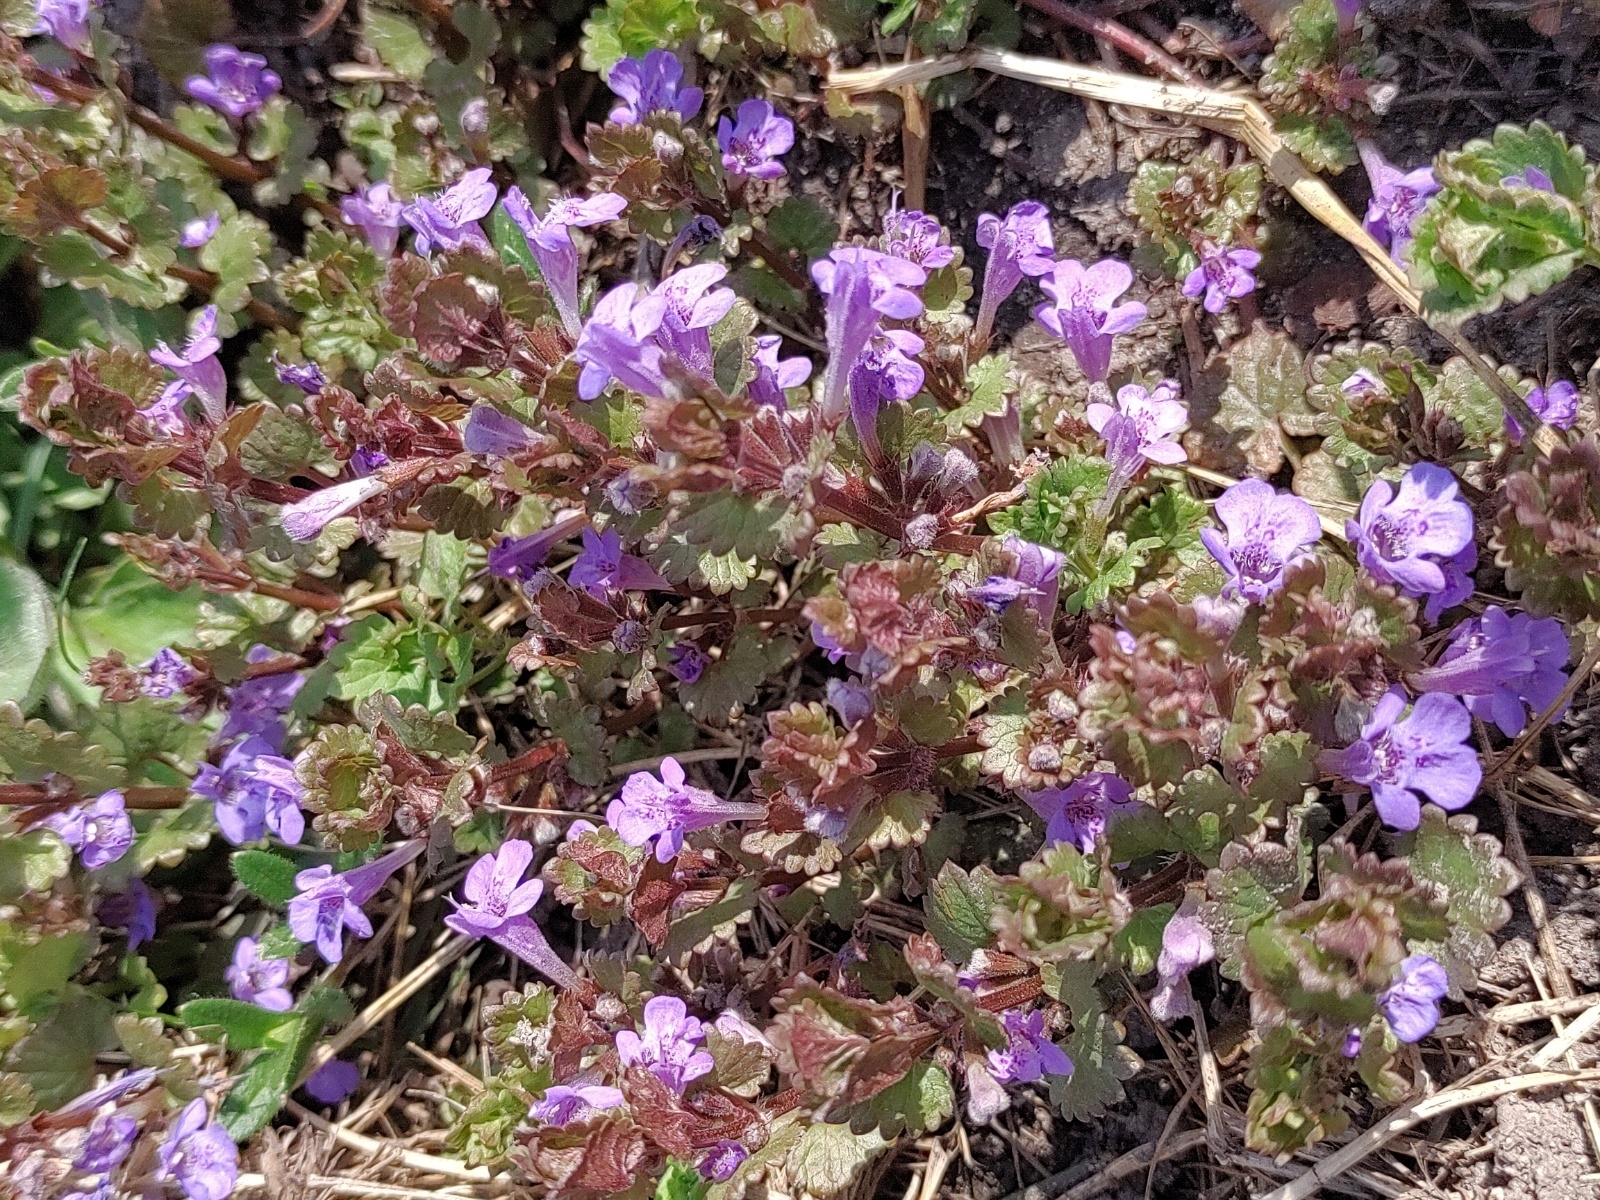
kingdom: Plantae
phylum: Tracheophyta
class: Magnoliopsida
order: Lamiales
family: Lamiaceae
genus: Glechoma
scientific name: Glechoma hederacea
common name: Ground ivy
